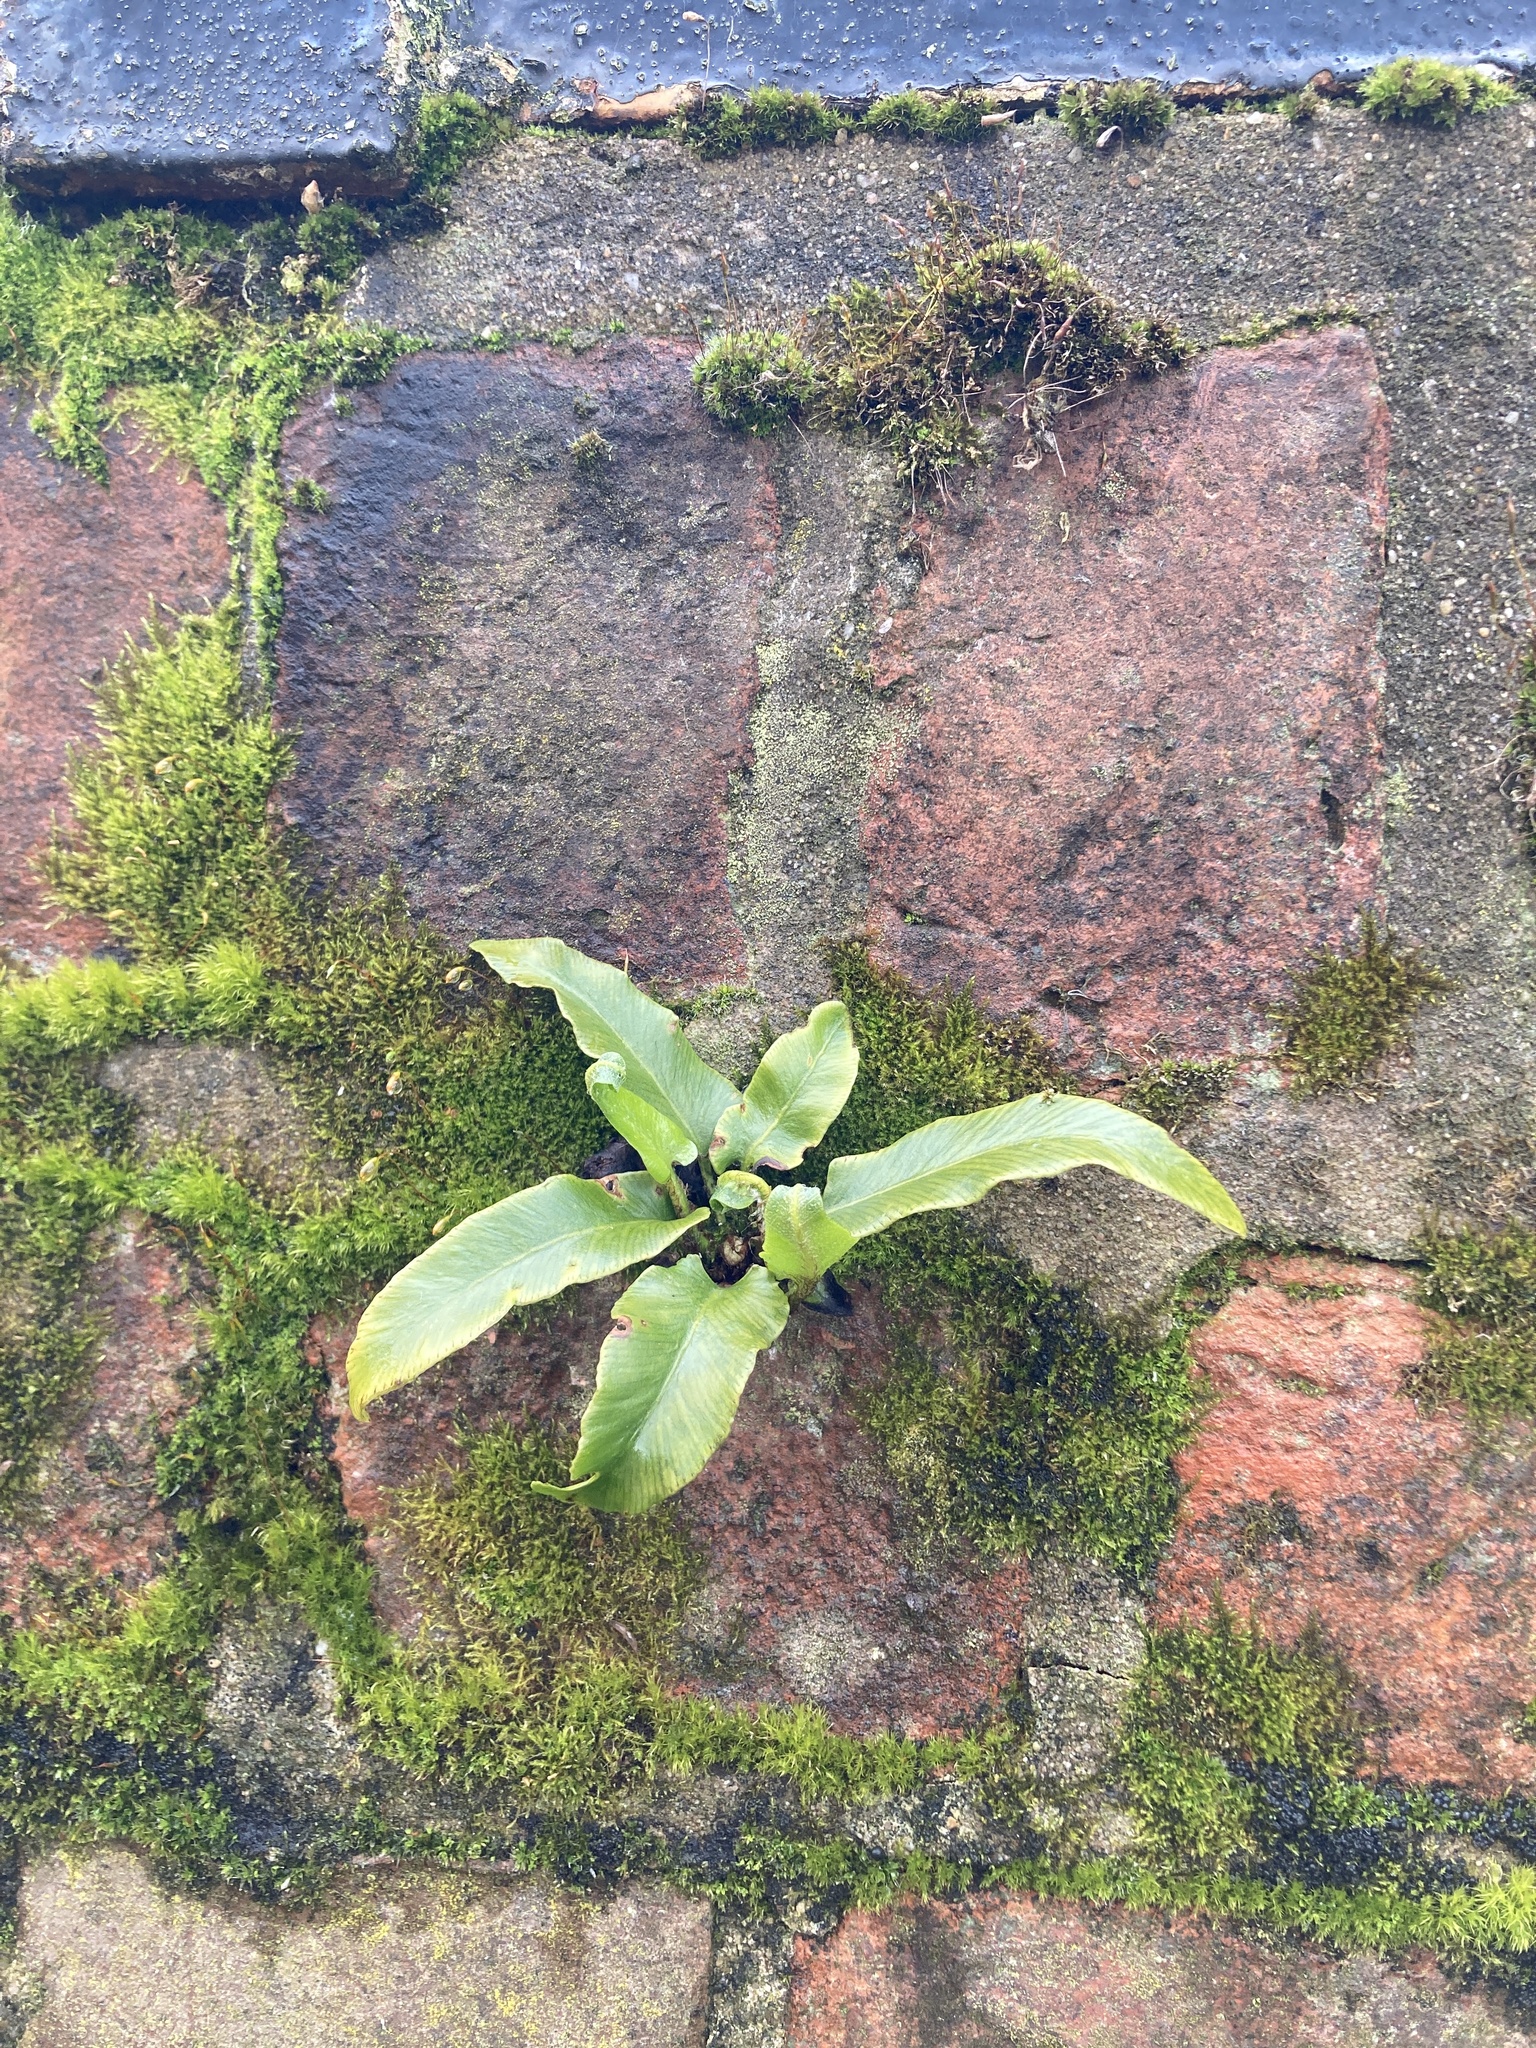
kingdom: Plantae
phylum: Tracheophyta
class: Polypodiopsida
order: Polypodiales
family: Aspleniaceae
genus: Asplenium
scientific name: Asplenium scolopendrium
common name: Hart's-tongue fern
